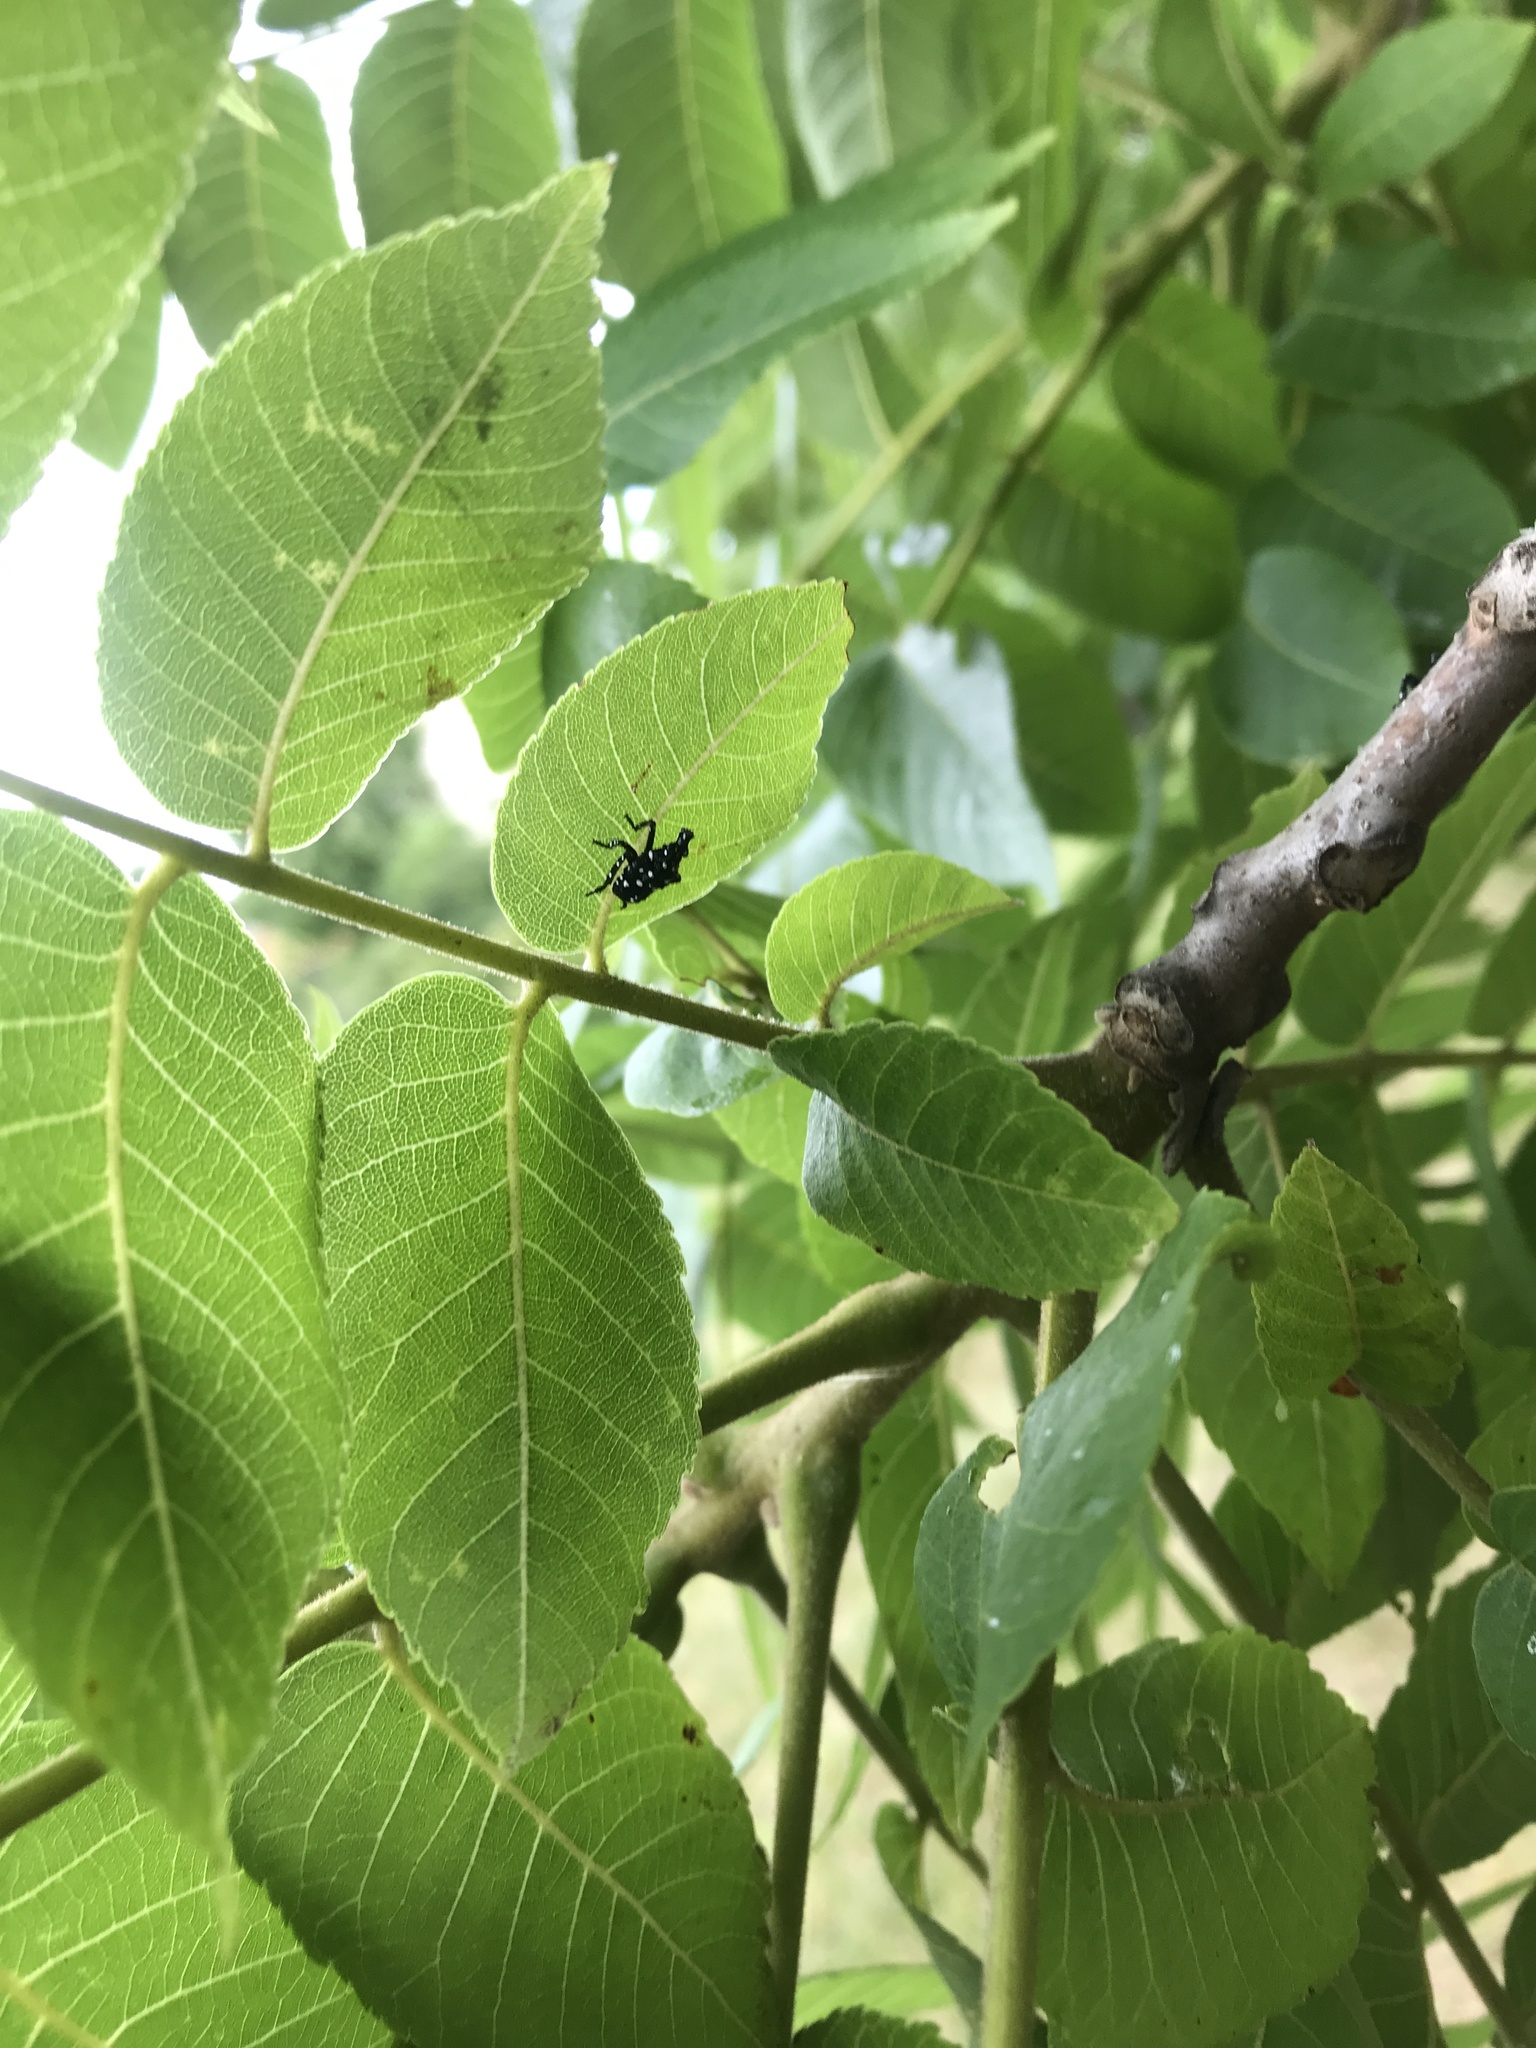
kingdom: Animalia
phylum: Arthropoda
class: Insecta
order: Hemiptera
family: Fulgoridae
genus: Lycorma
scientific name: Lycorma delicatula
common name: Spotted lanternfly
